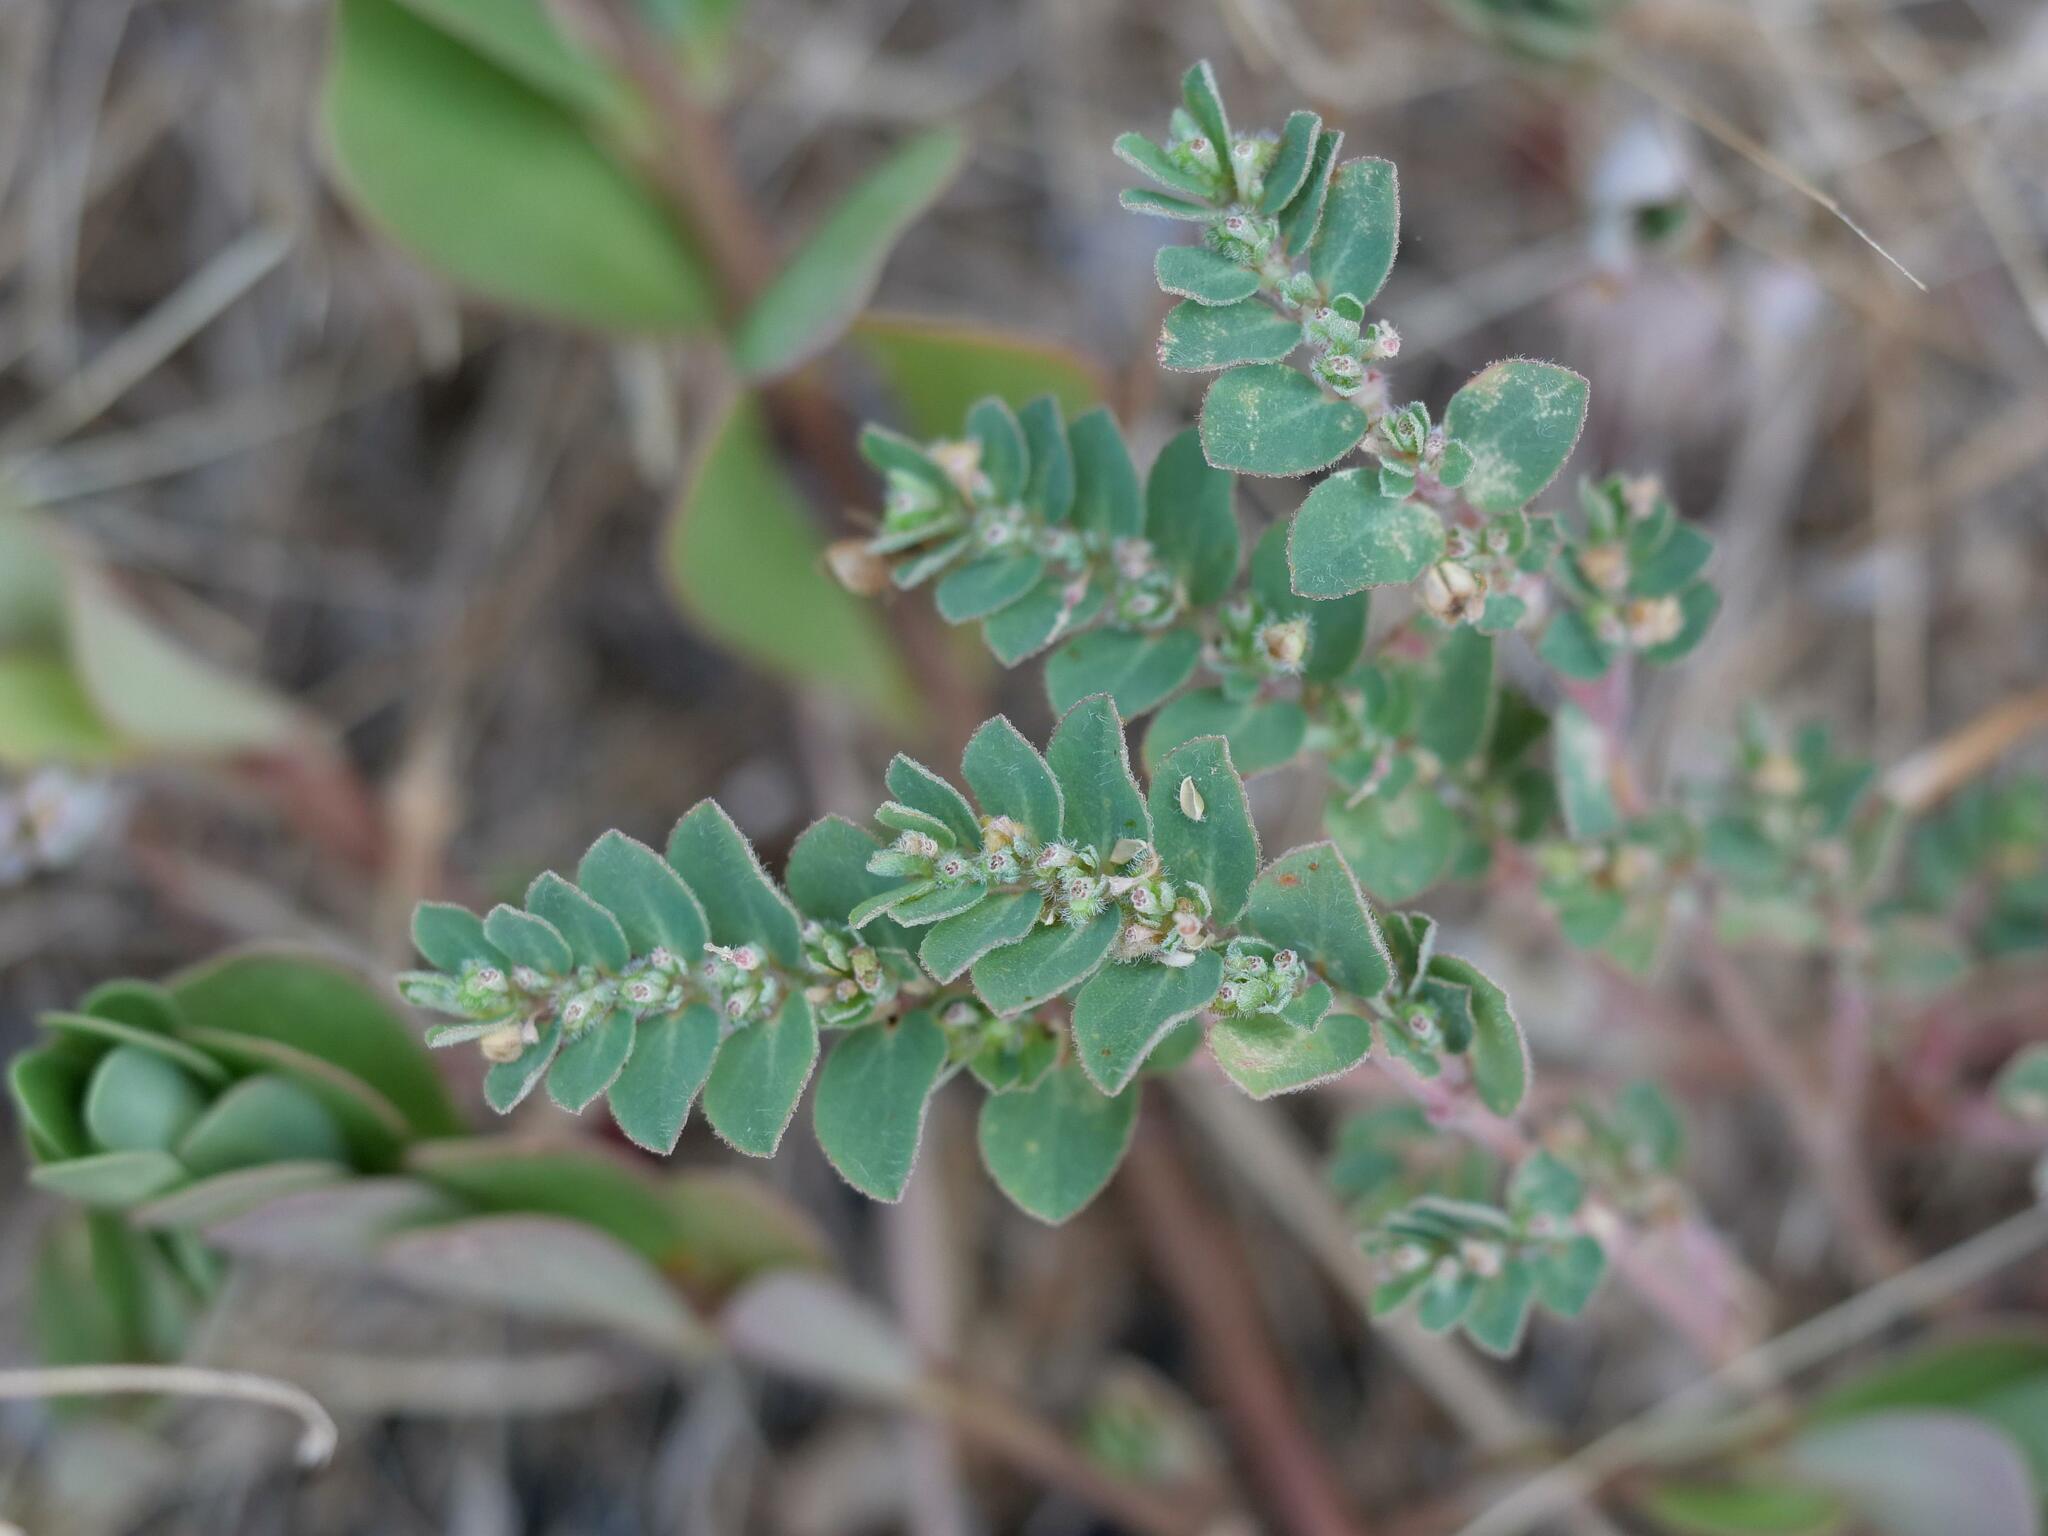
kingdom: Plantae
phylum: Tracheophyta
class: Magnoliopsida
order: Malpighiales
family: Euphorbiaceae
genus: Euphorbia
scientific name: Euphorbia prostrata
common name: Prostrate sandmat
